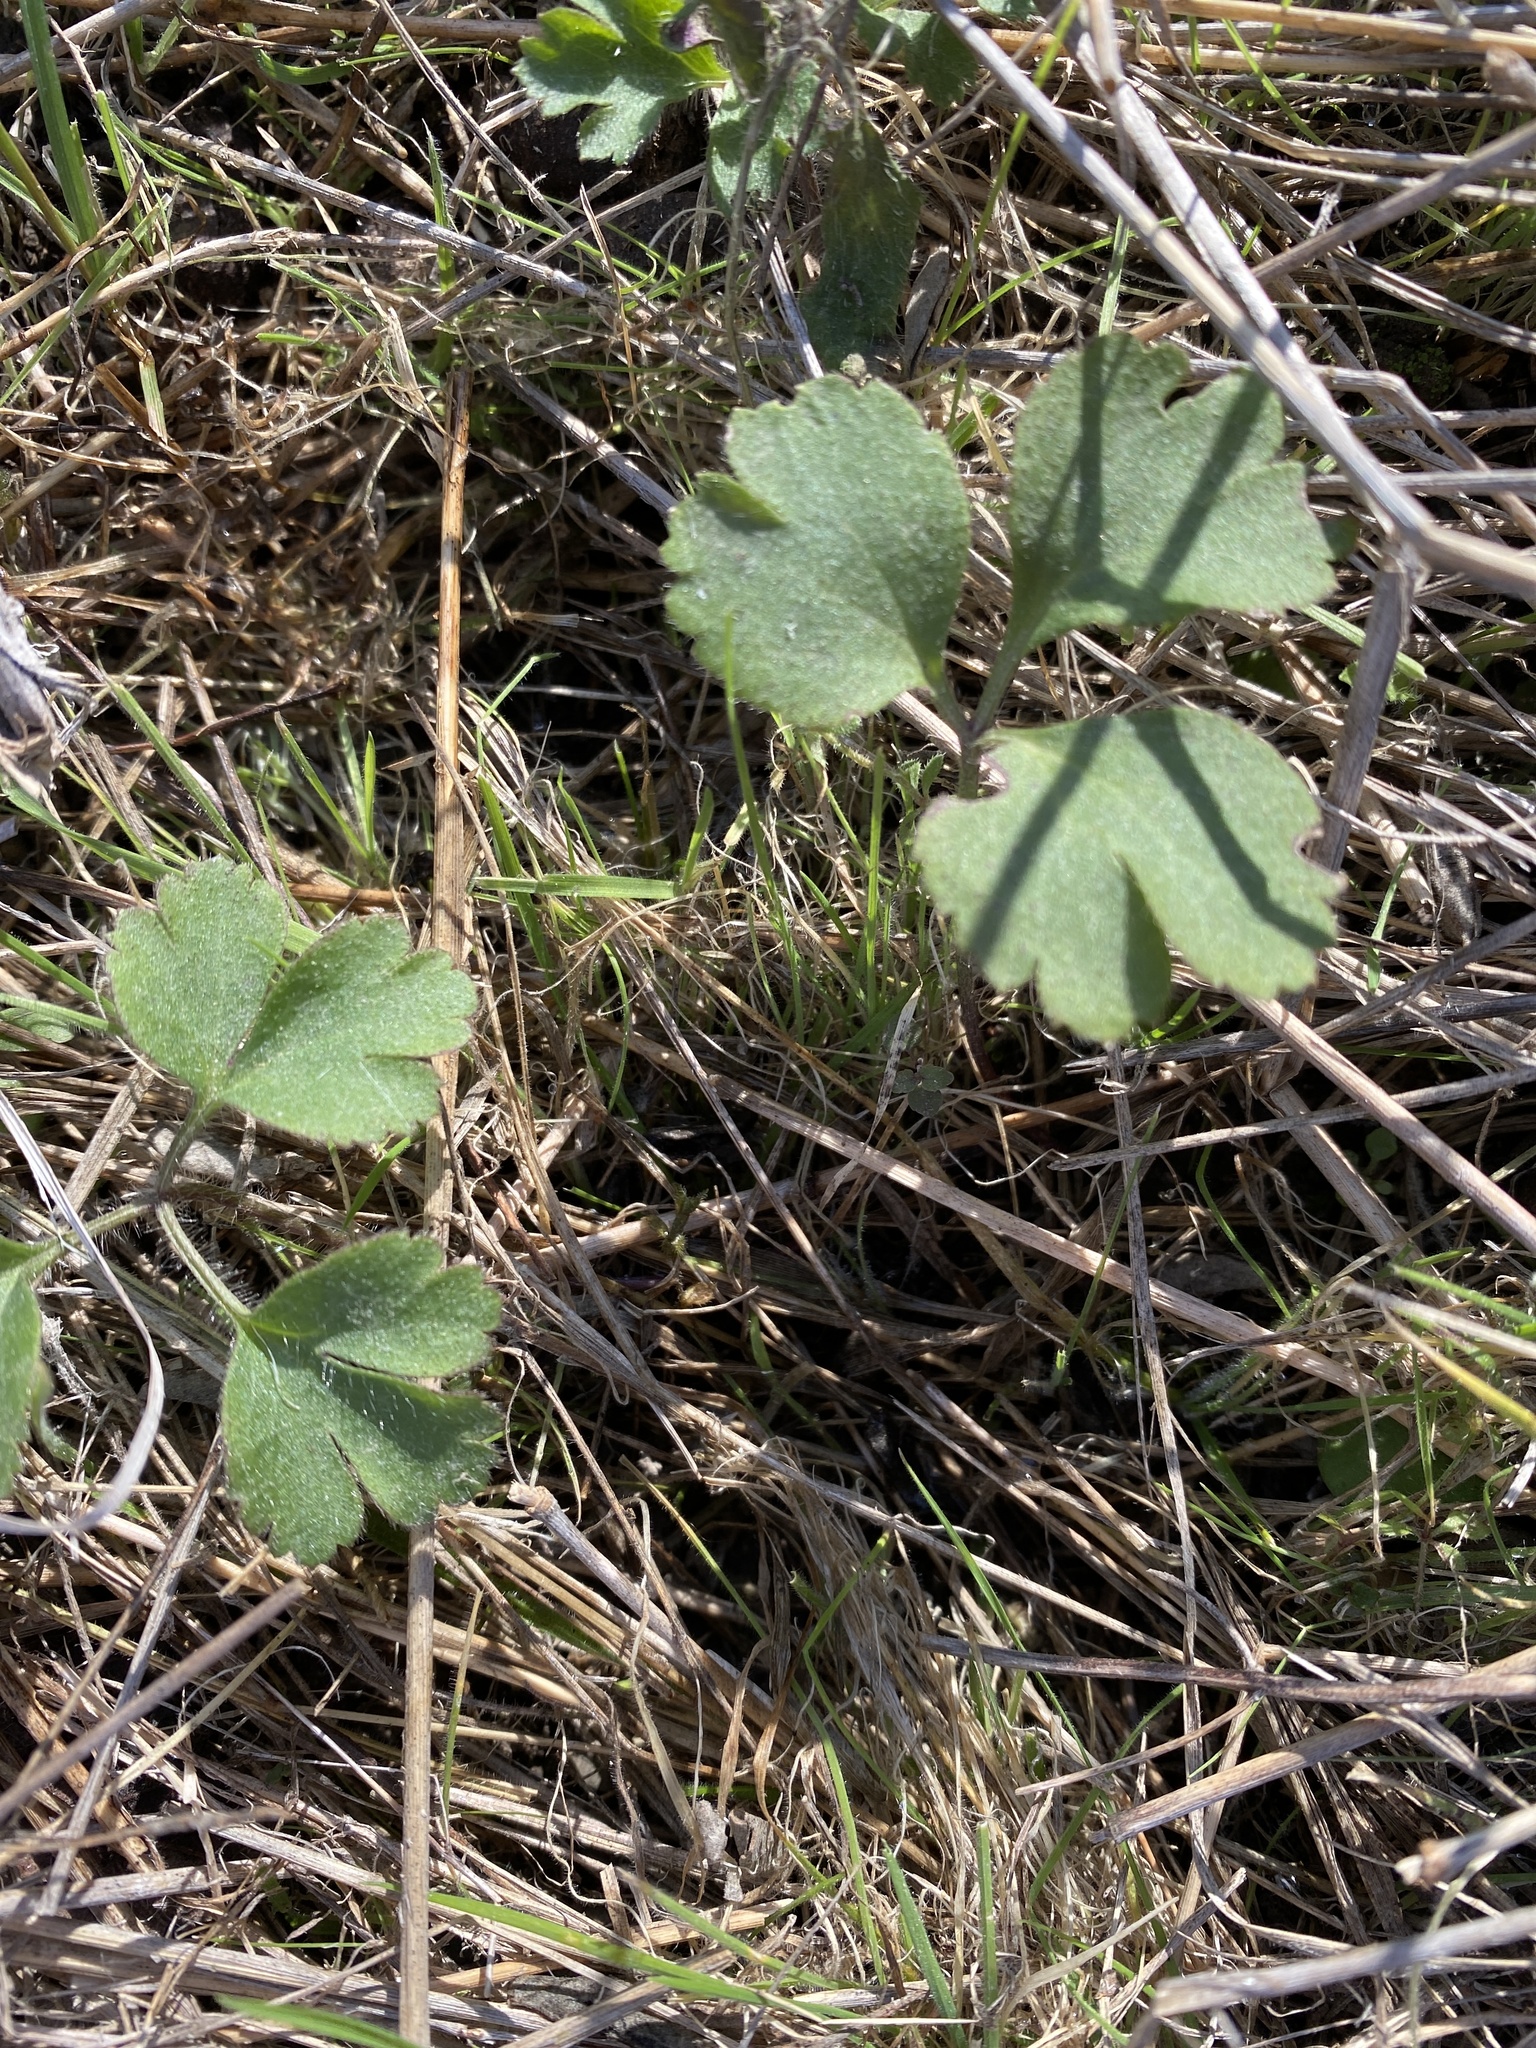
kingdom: Plantae
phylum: Tracheophyta
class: Magnoliopsida
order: Ranunculales
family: Ranunculaceae
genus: Anemone
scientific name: Anemone berlandieri
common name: Ten-petal anemone
